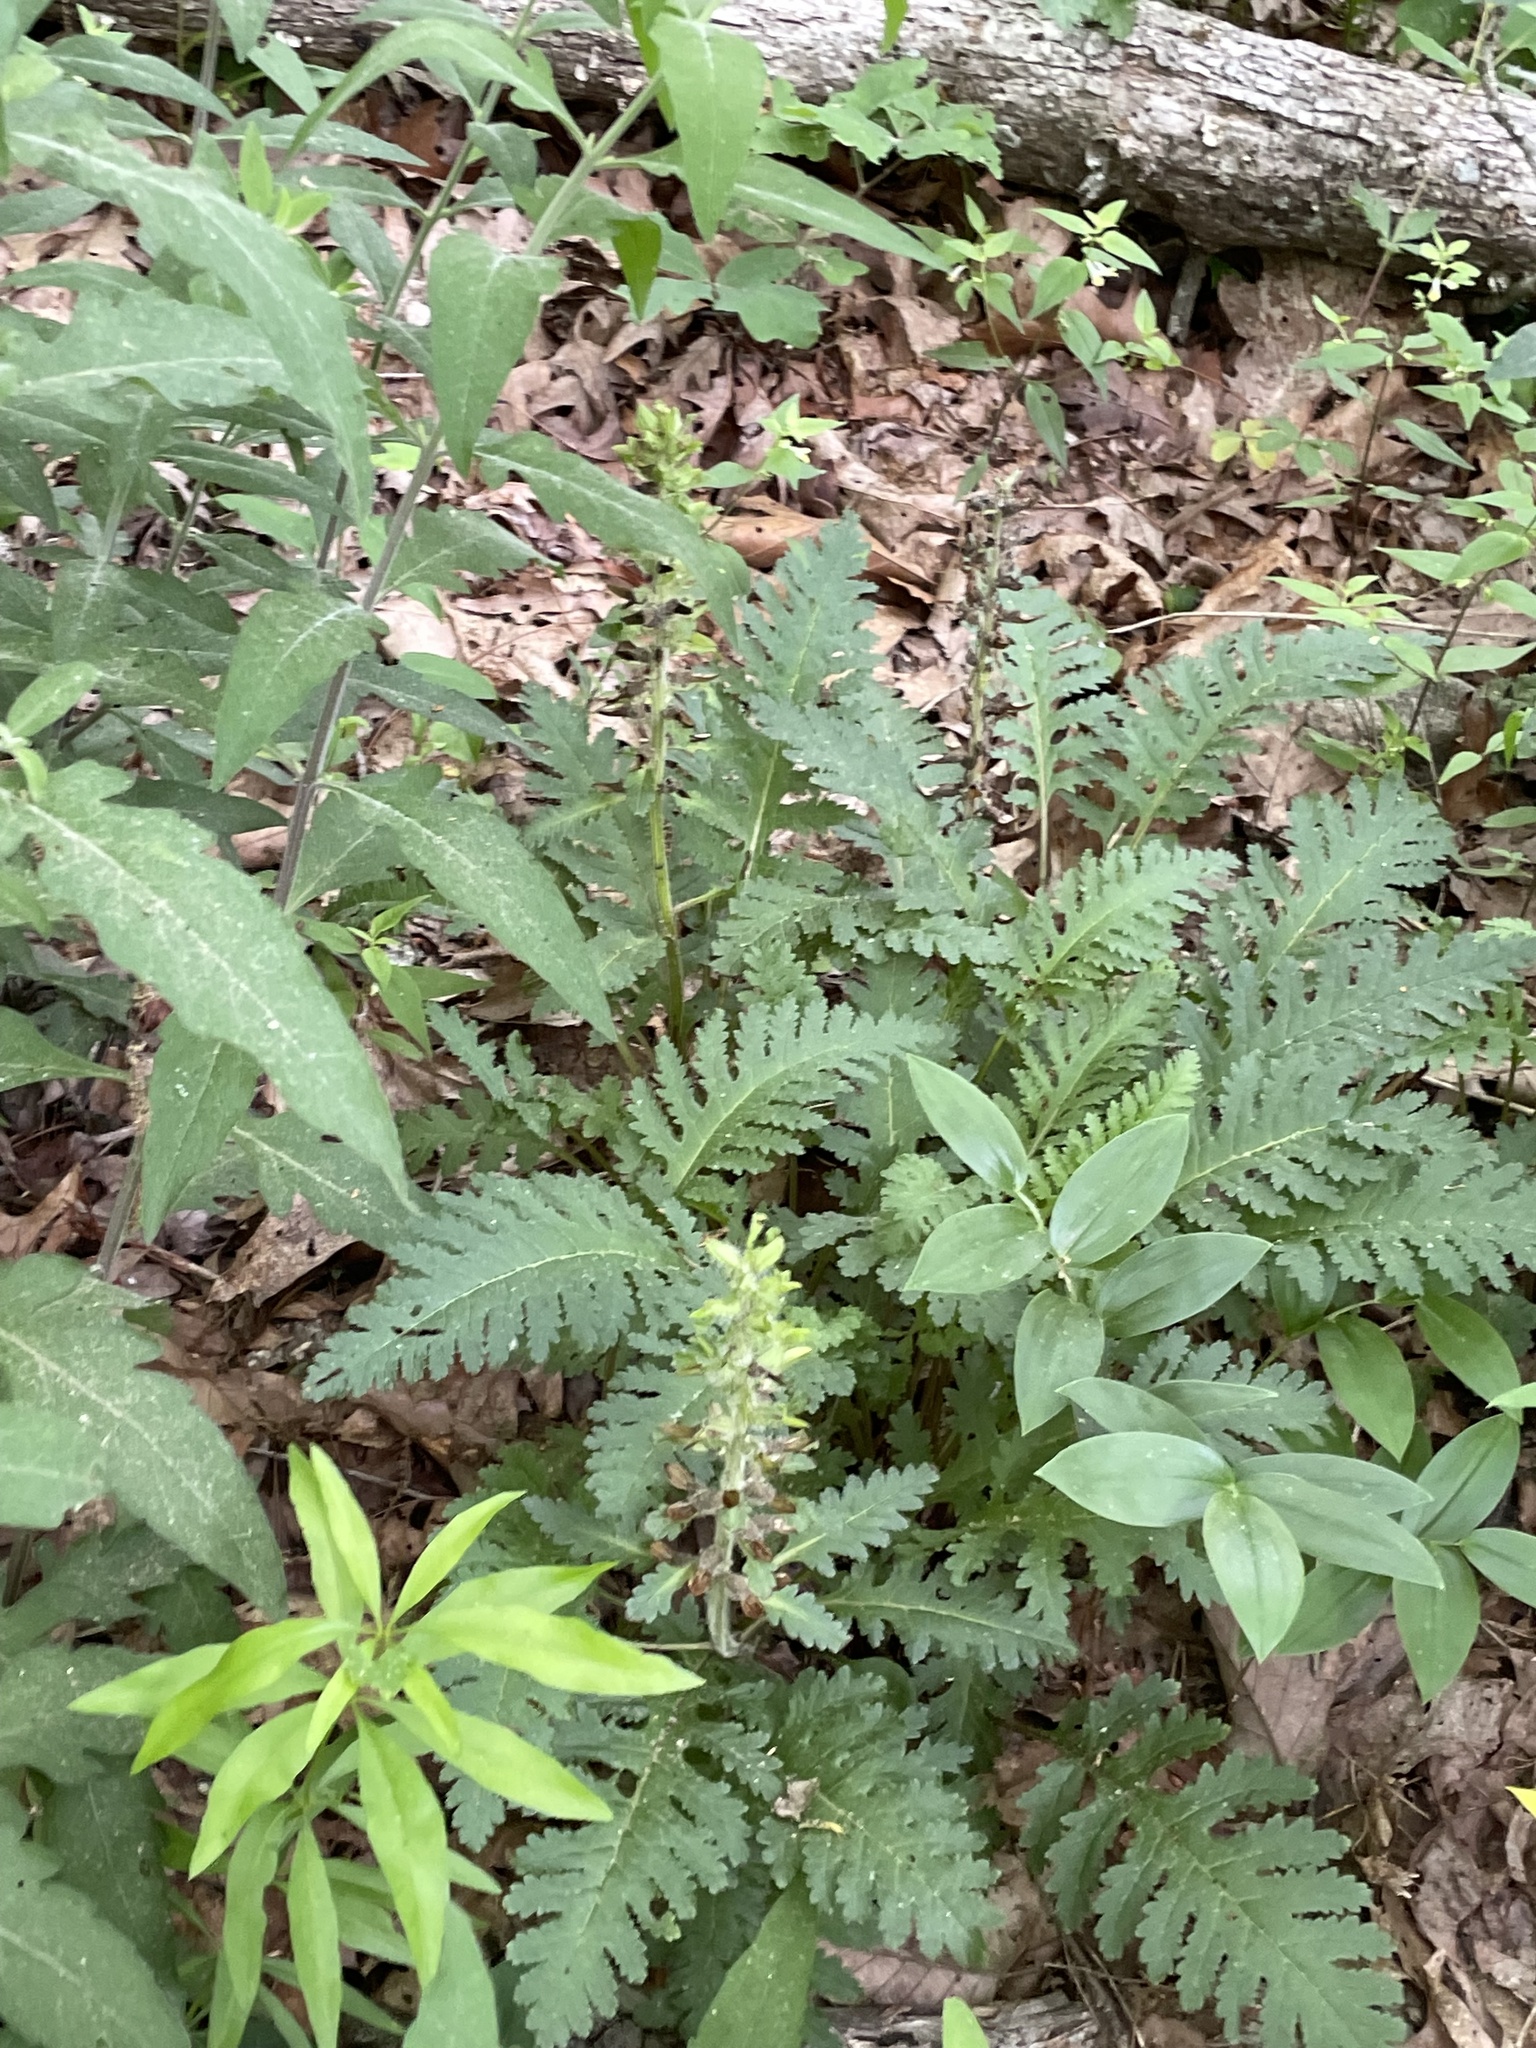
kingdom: Plantae
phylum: Tracheophyta
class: Magnoliopsida
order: Lamiales
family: Orobanchaceae
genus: Pedicularis
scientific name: Pedicularis canadensis
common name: Early lousewort
